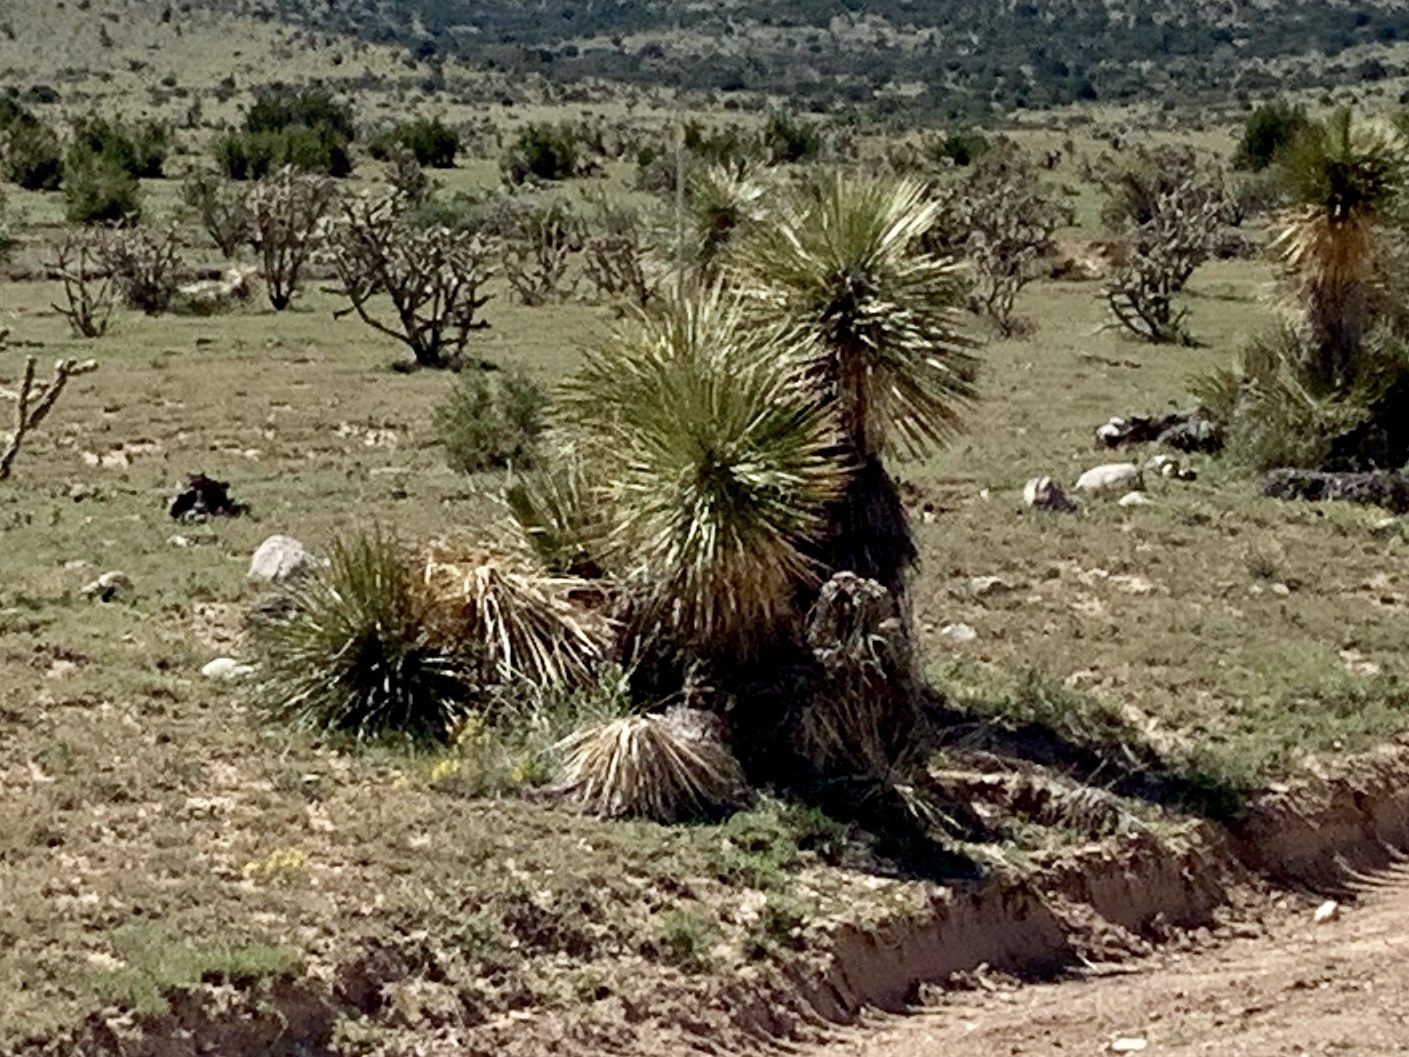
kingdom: Plantae
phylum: Tracheophyta
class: Liliopsida
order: Asparagales
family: Asparagaceae
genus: Yucca
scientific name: Yucca elata
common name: Palmella
